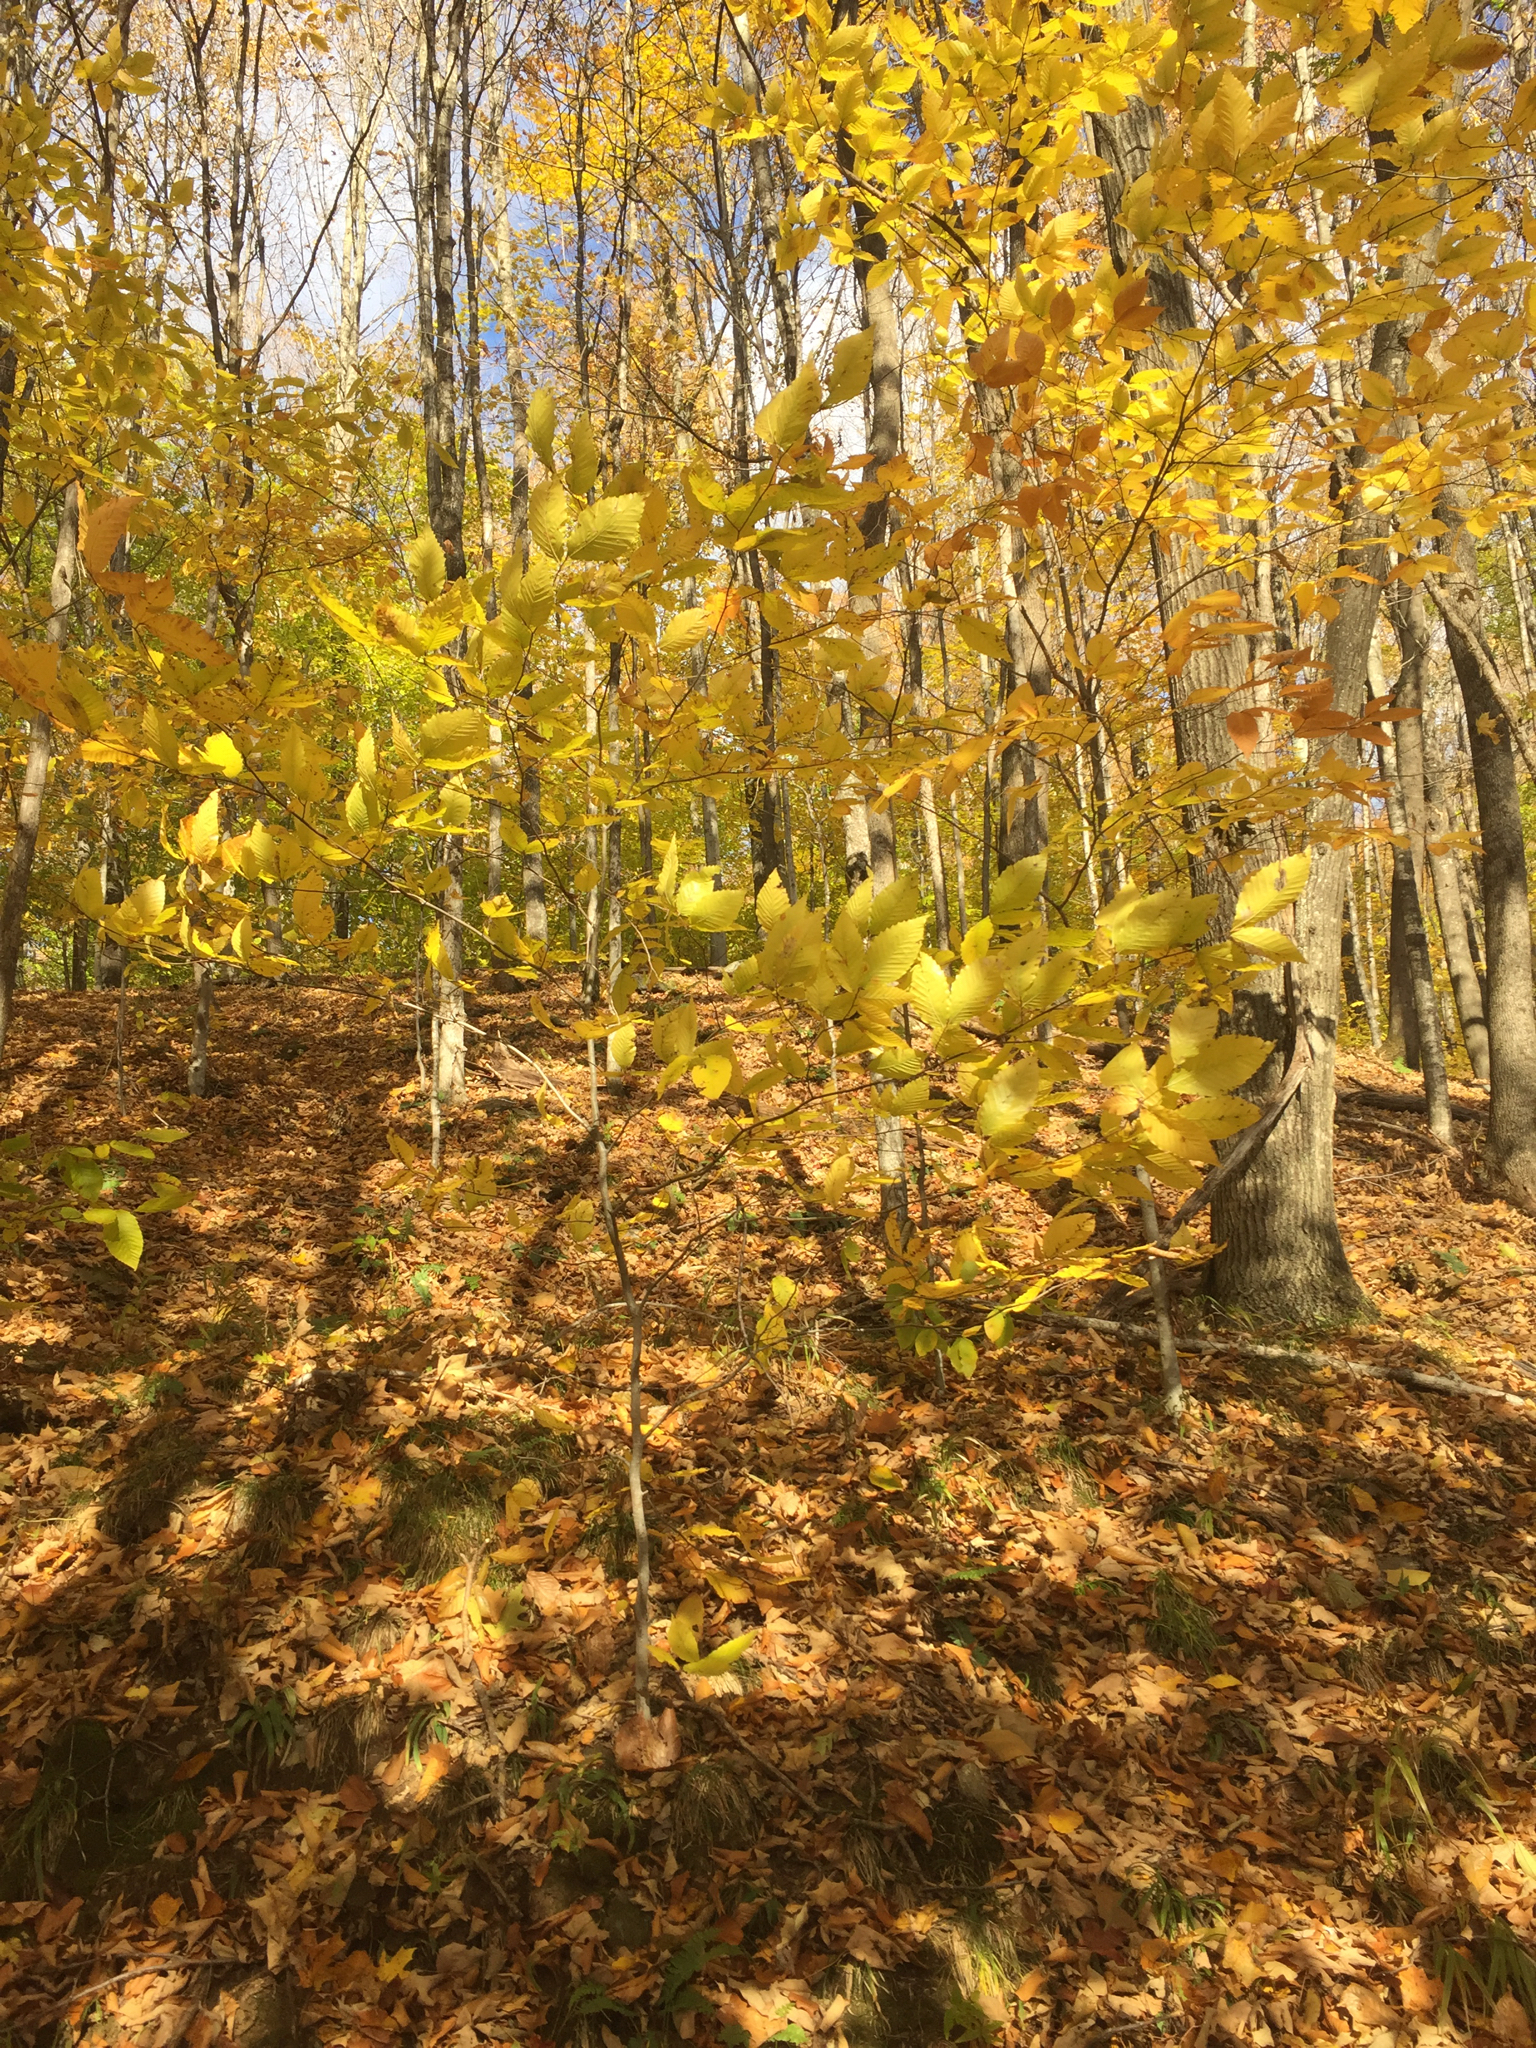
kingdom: Plantae
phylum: Tracheophyta
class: Magnoliopsida
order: Fagales
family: Fagaceae
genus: Fagus
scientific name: Fagus grandifolia
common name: American beech
